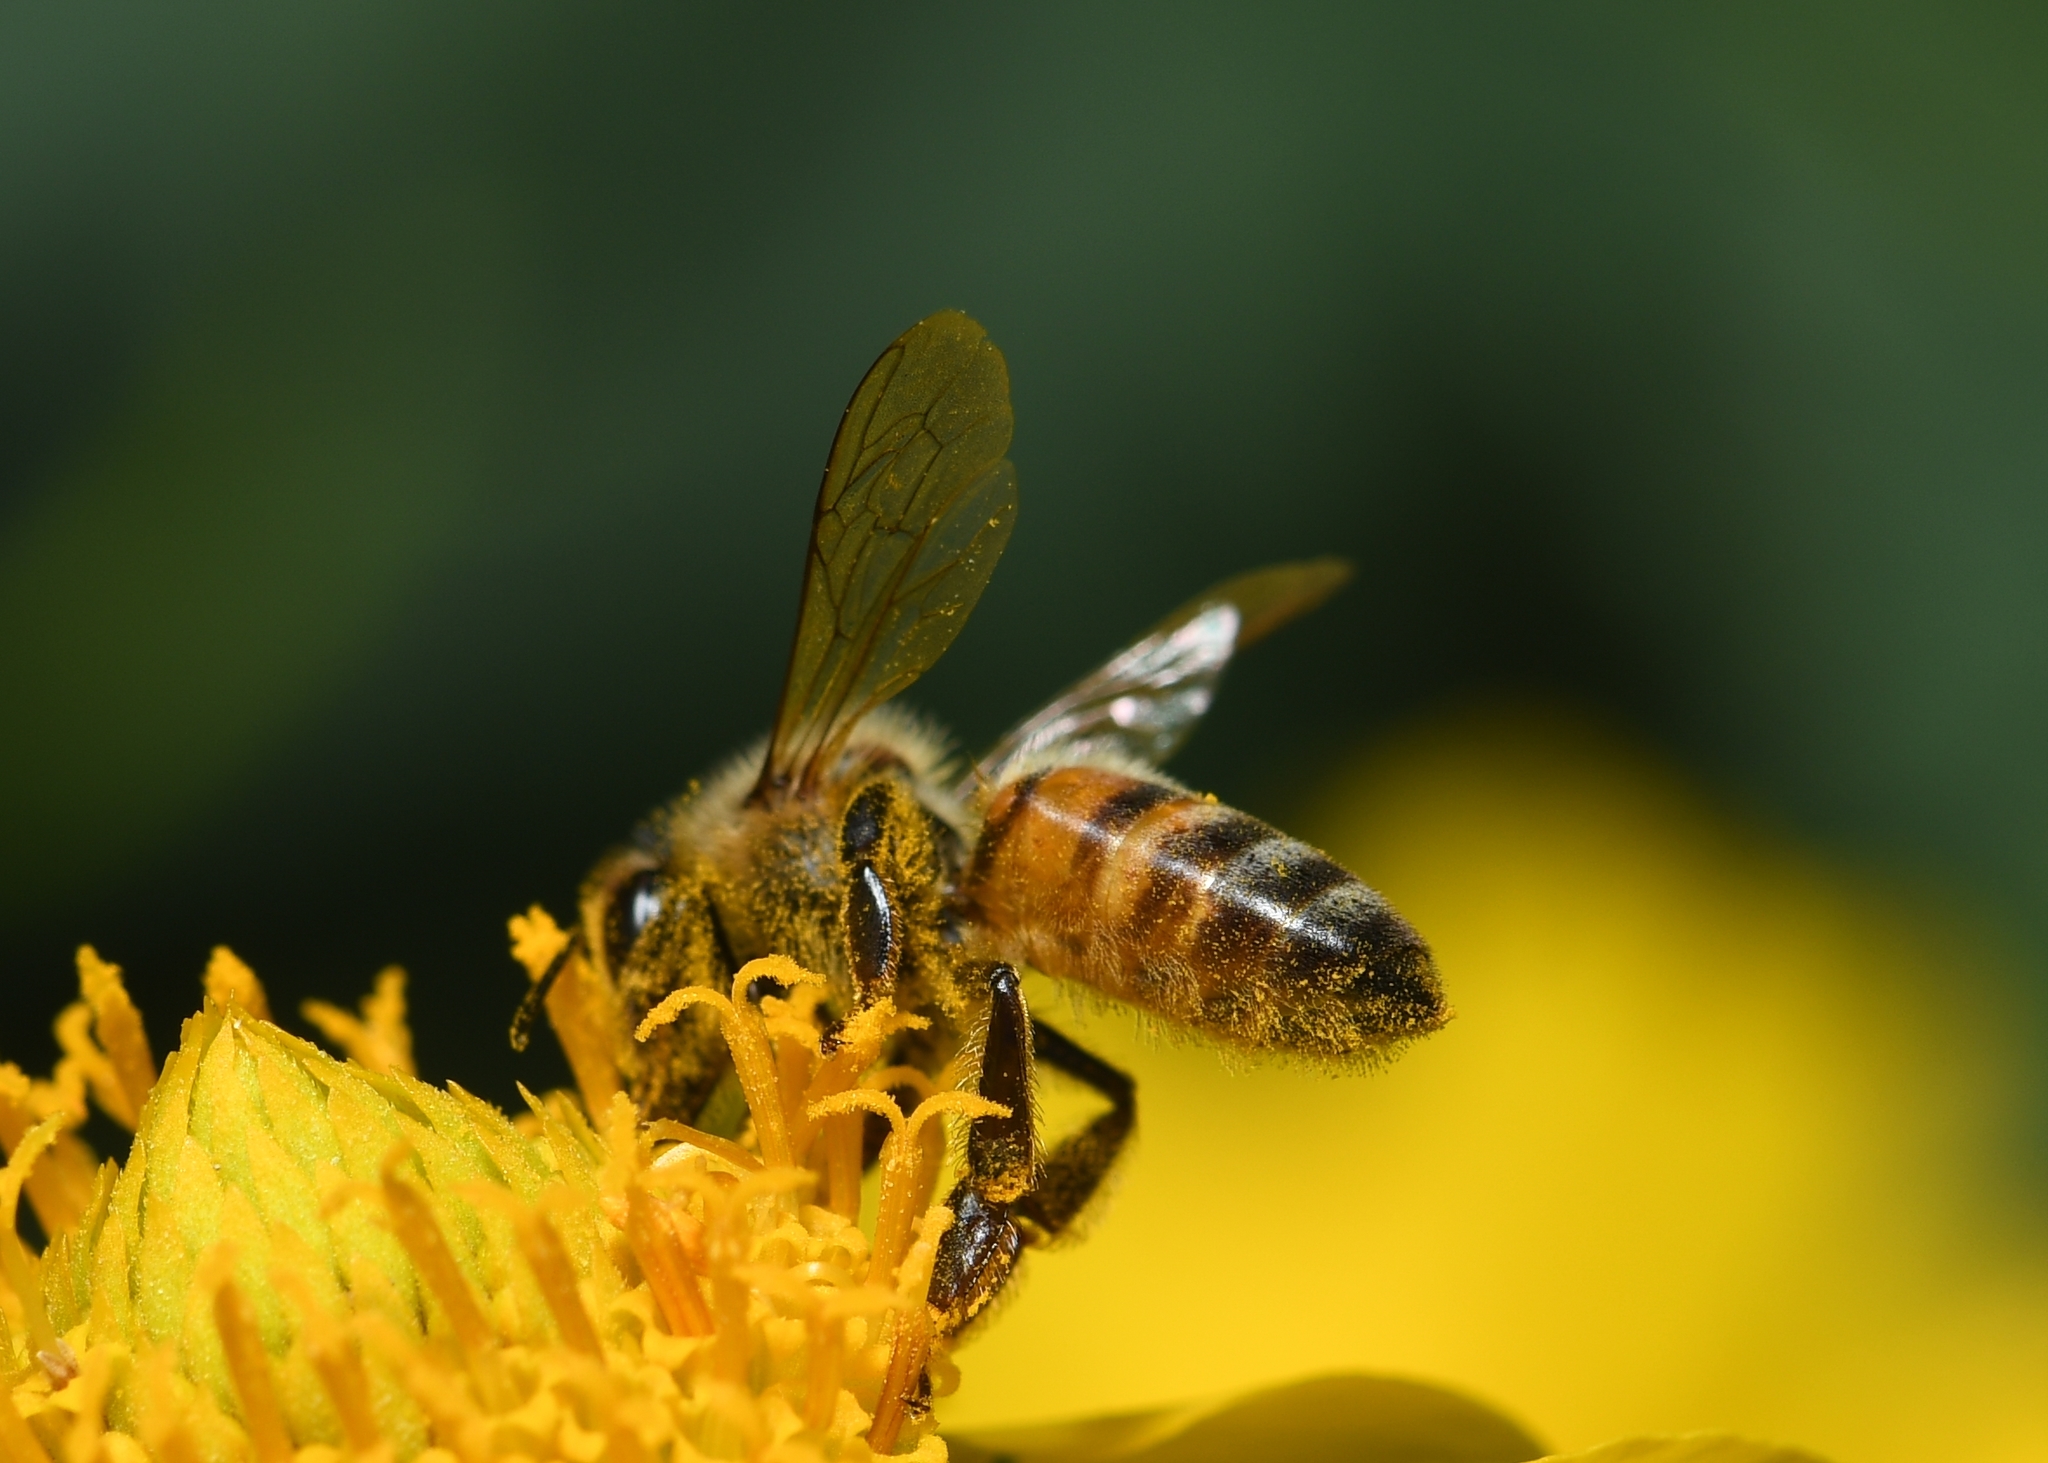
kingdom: Animalia
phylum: Arthropoda
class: Insecta
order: Hymenoptera
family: Apidae
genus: Apis
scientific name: Apis mellifera
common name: Honey bee
